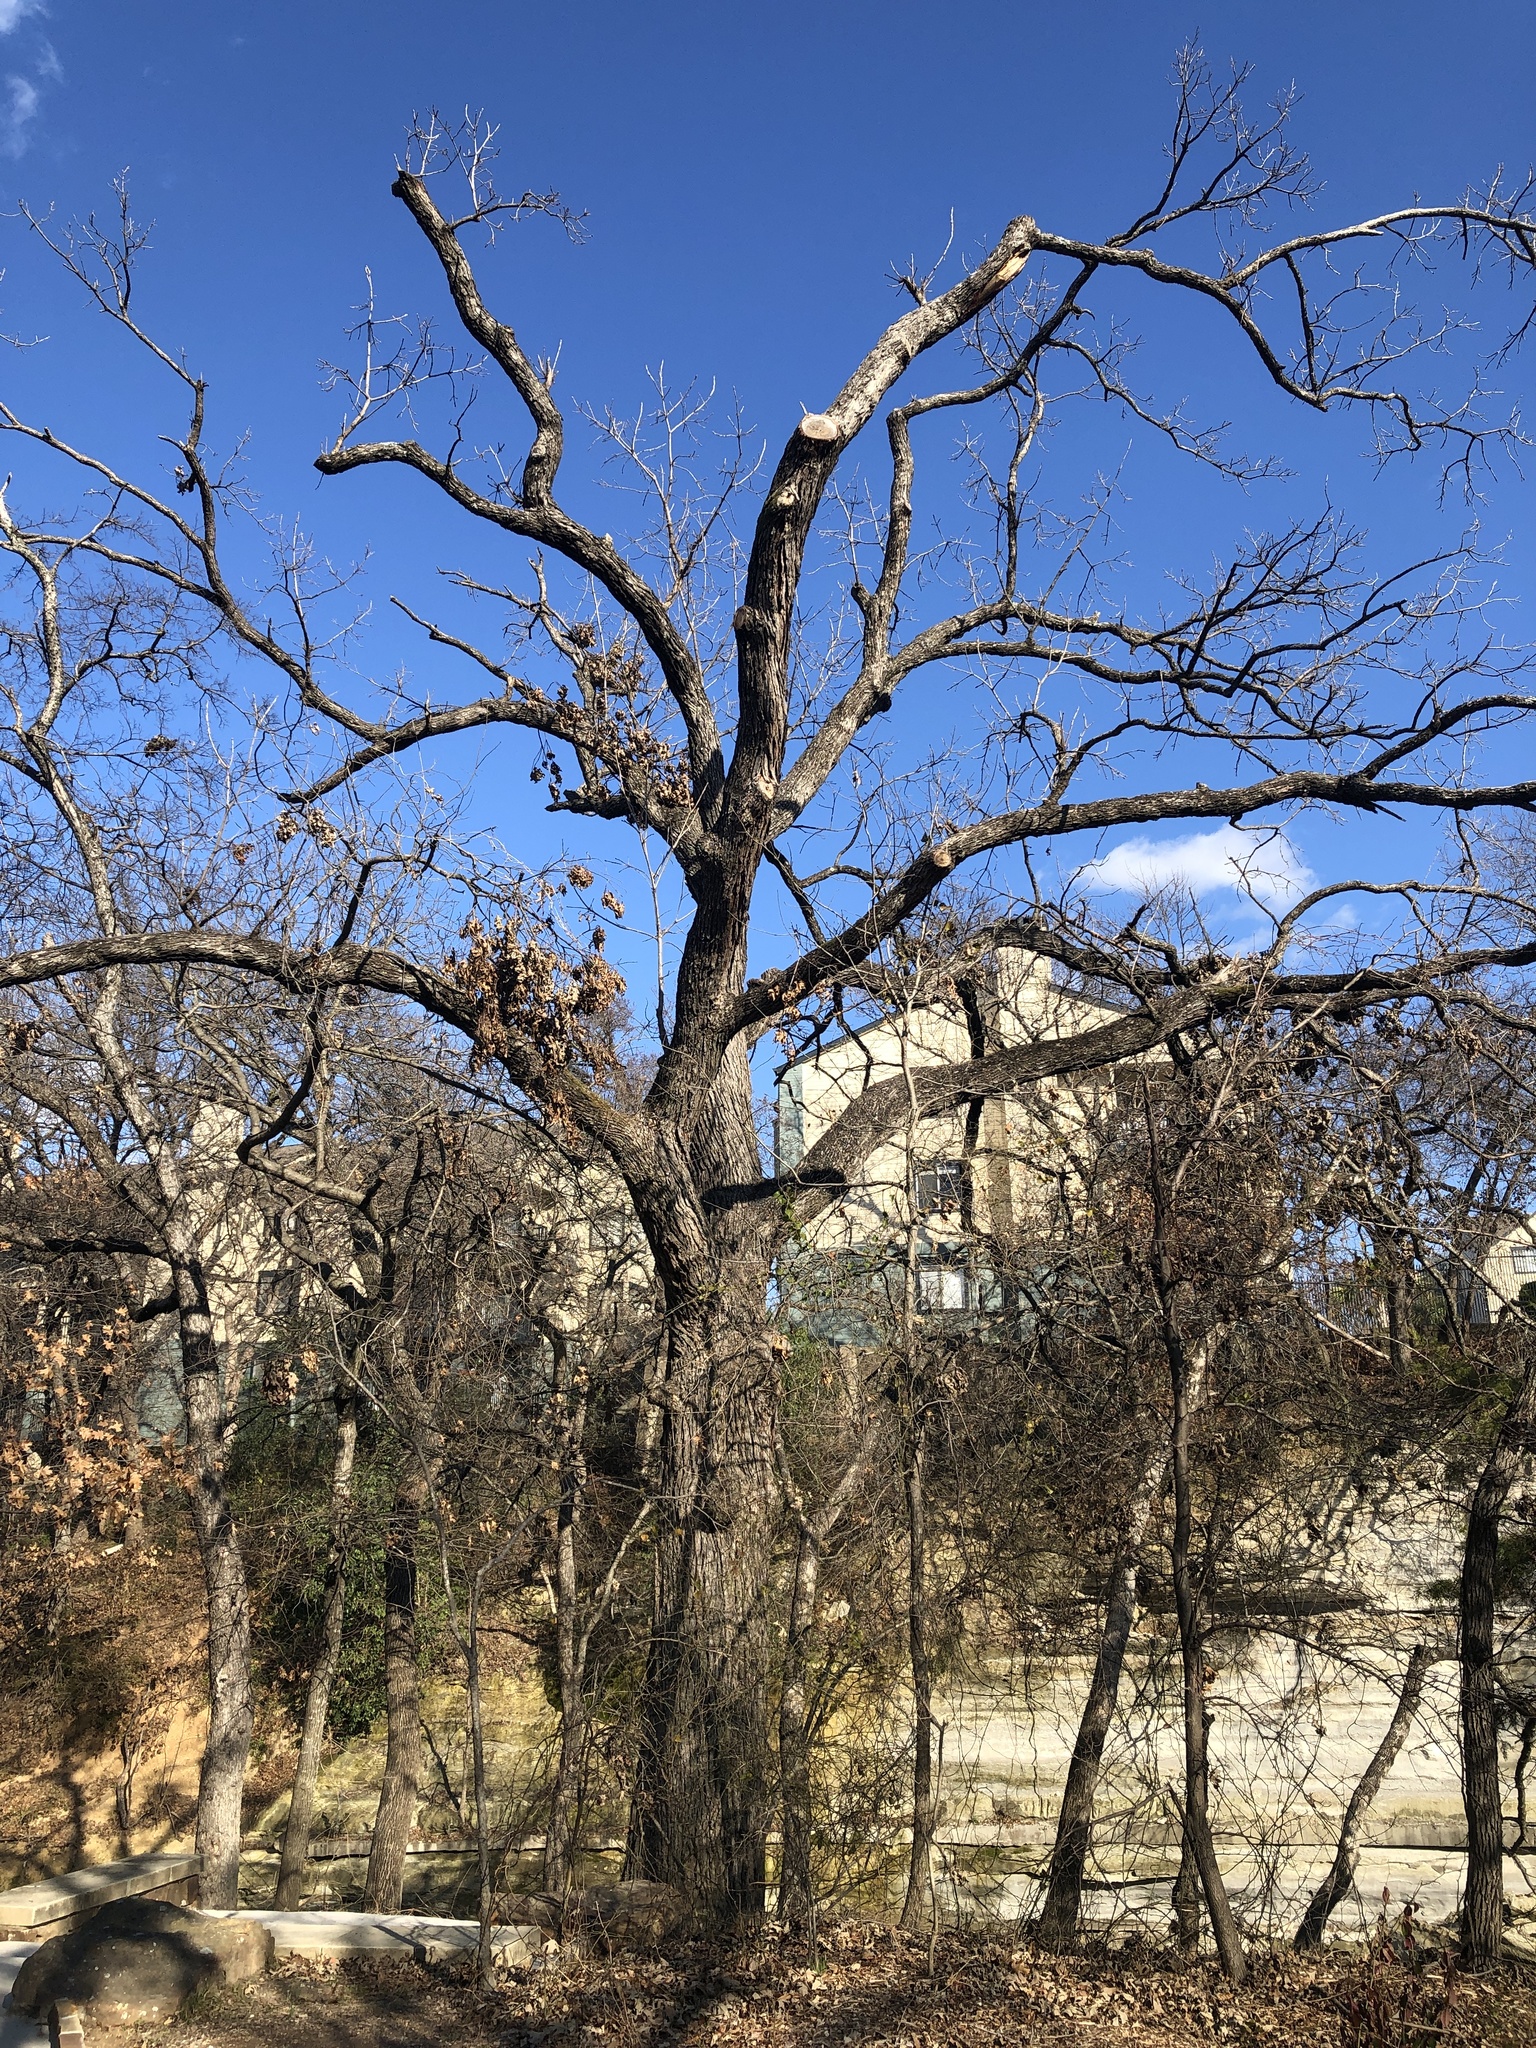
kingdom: Plantae
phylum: Tracheophyta
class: Magnoliopsida
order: Fagales
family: Fagaceae
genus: Quercus
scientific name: Quercus macrocarpa
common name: Bur oak
